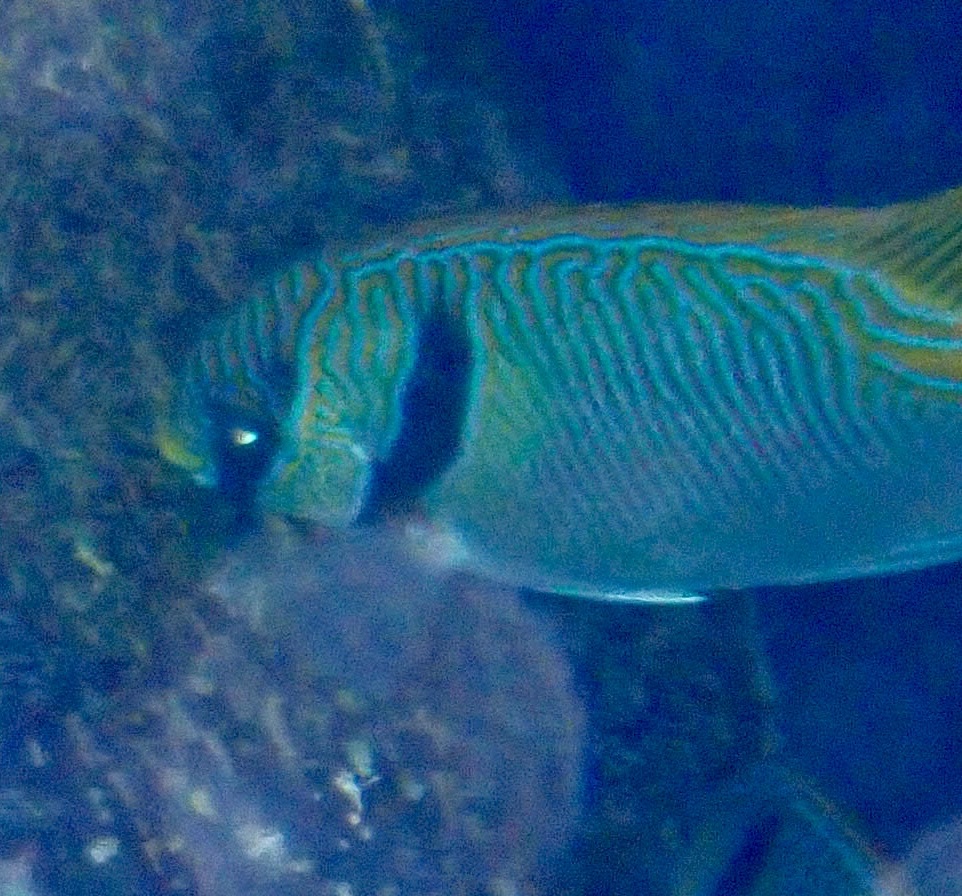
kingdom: Animalia
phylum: Chordata
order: Perciformes
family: Siganidae
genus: Siganus
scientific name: Siganus doliatus
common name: Barred spinefoot
